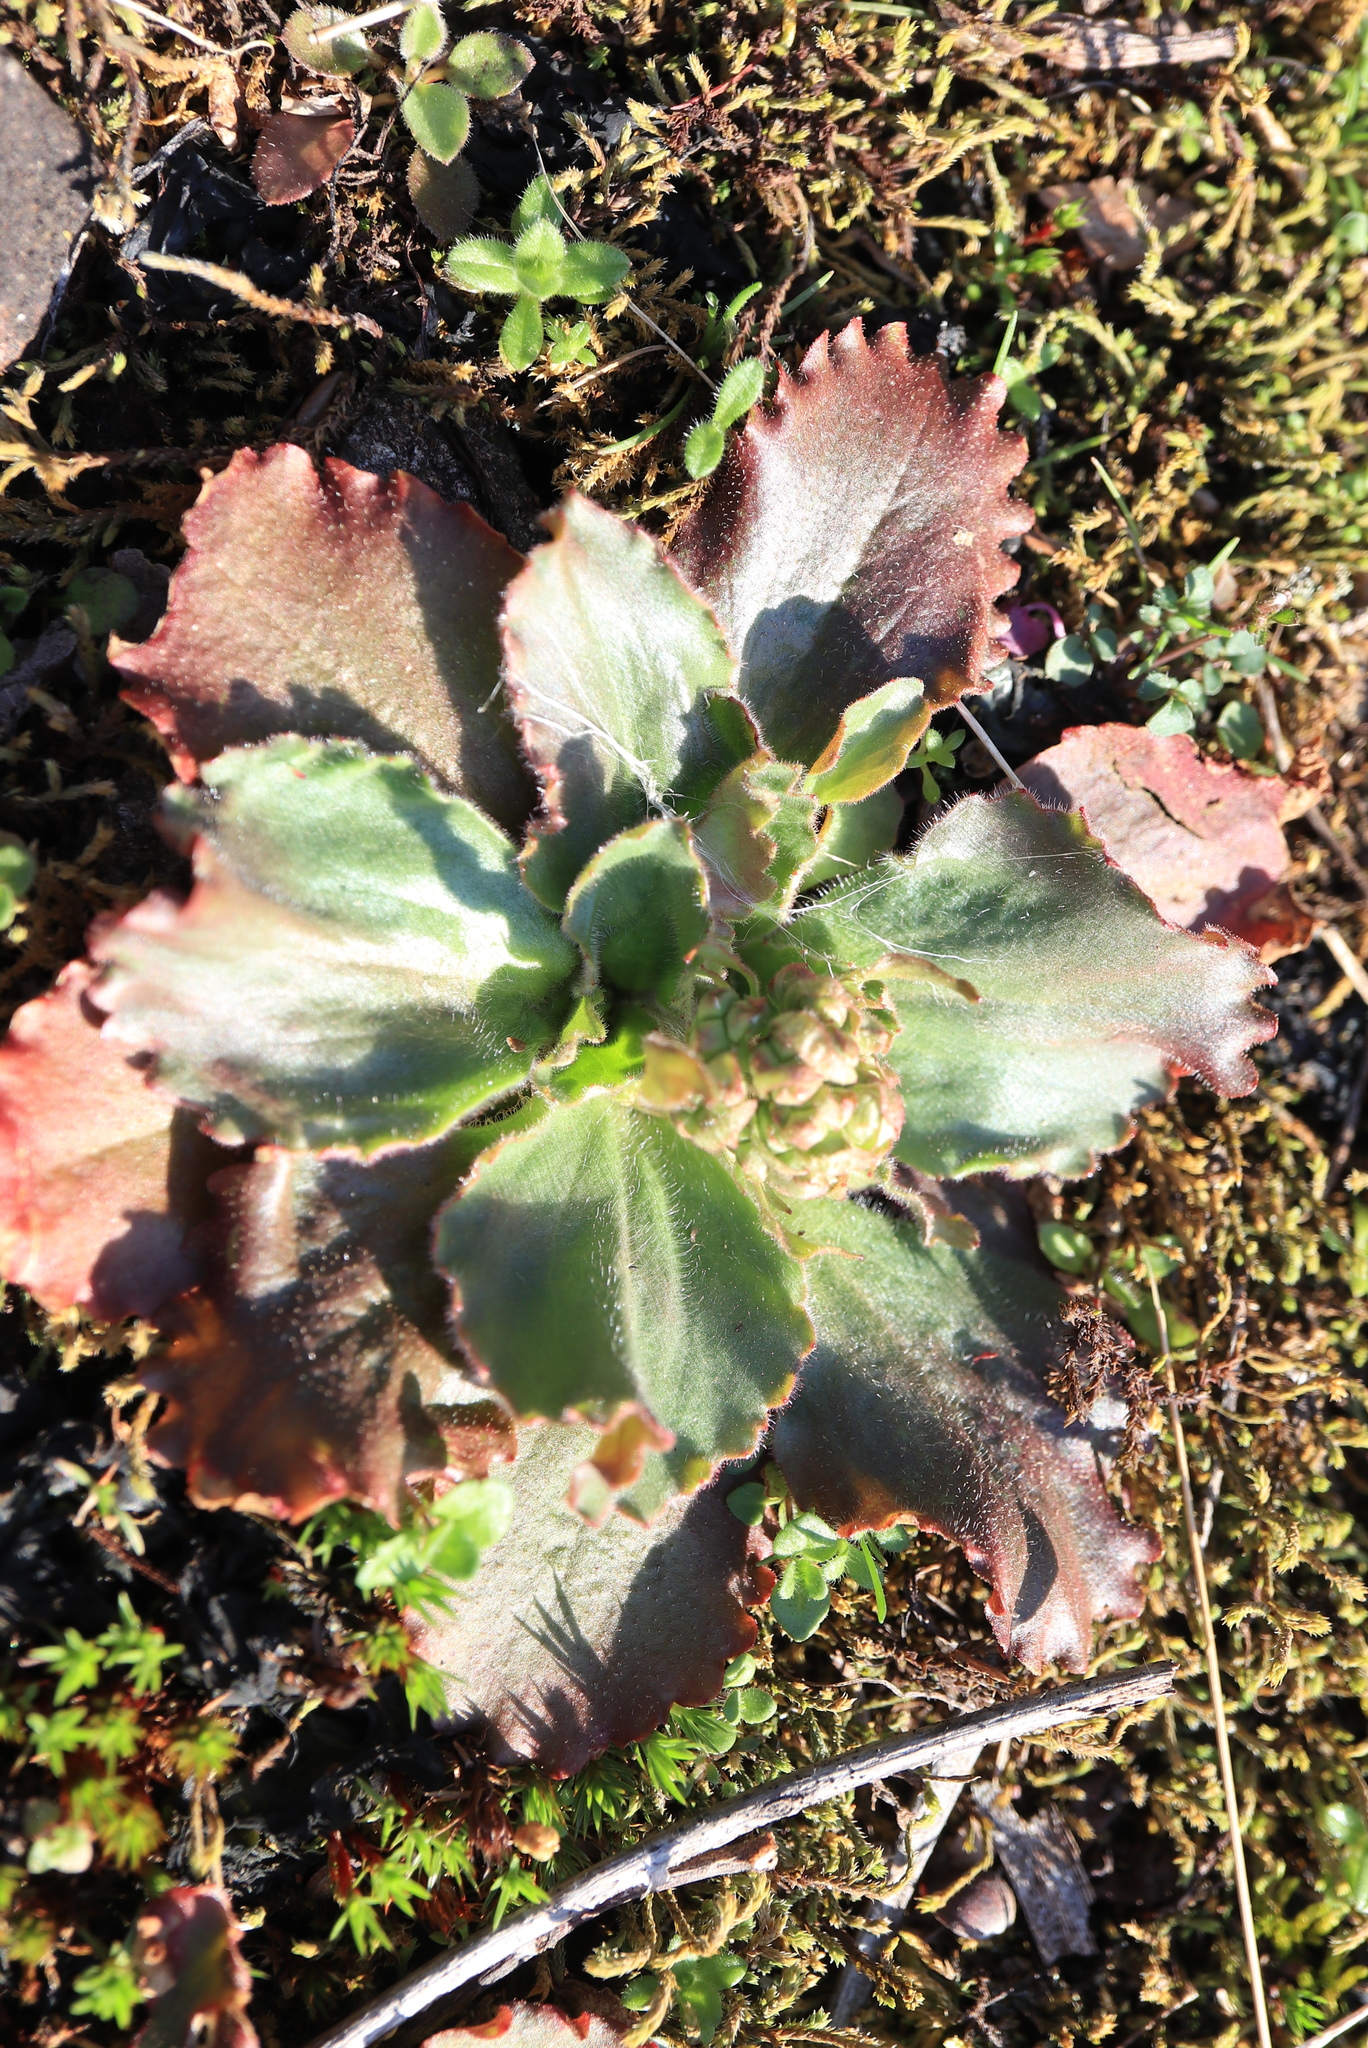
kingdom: Plantae
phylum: Tracheophyta
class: Magnoliopsida
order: Saxifragales
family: Saxifragaceae
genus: Micranthes
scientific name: Micranthes virginiensis
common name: Early saxifrage
